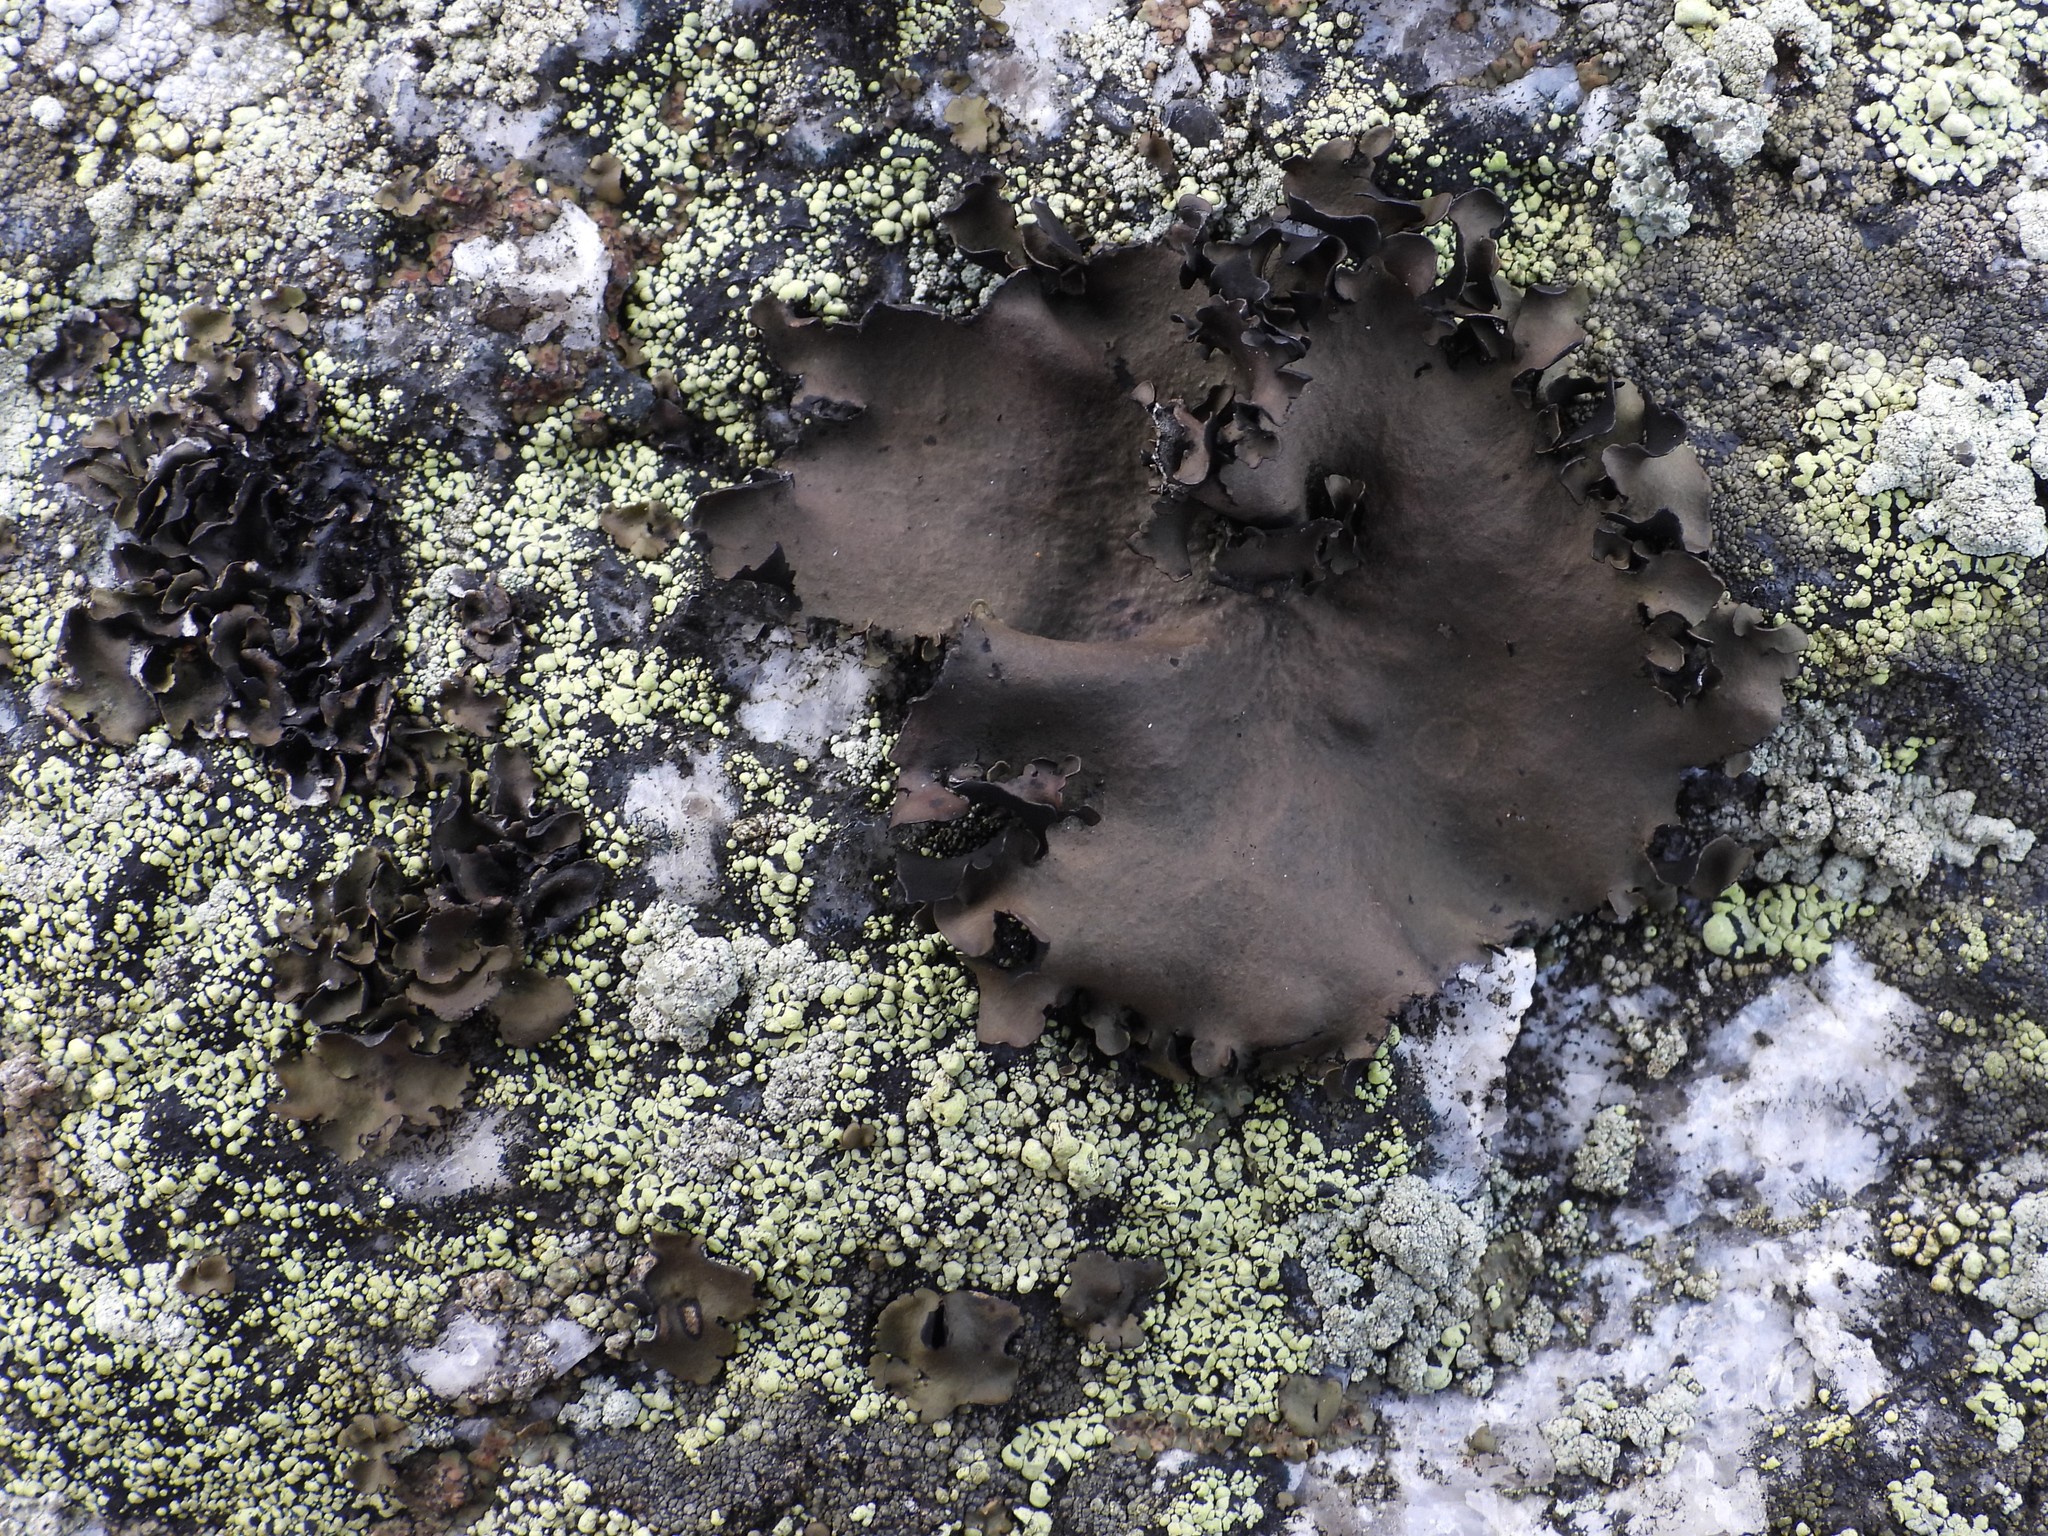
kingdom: Fungi
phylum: Ascomycota
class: Lecanoromycetes
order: Umbilicariales
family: Umbilicariaceae
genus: Umbilicaria
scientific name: Umbilicaria polyphylla
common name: Petalled rocktripe lichen
